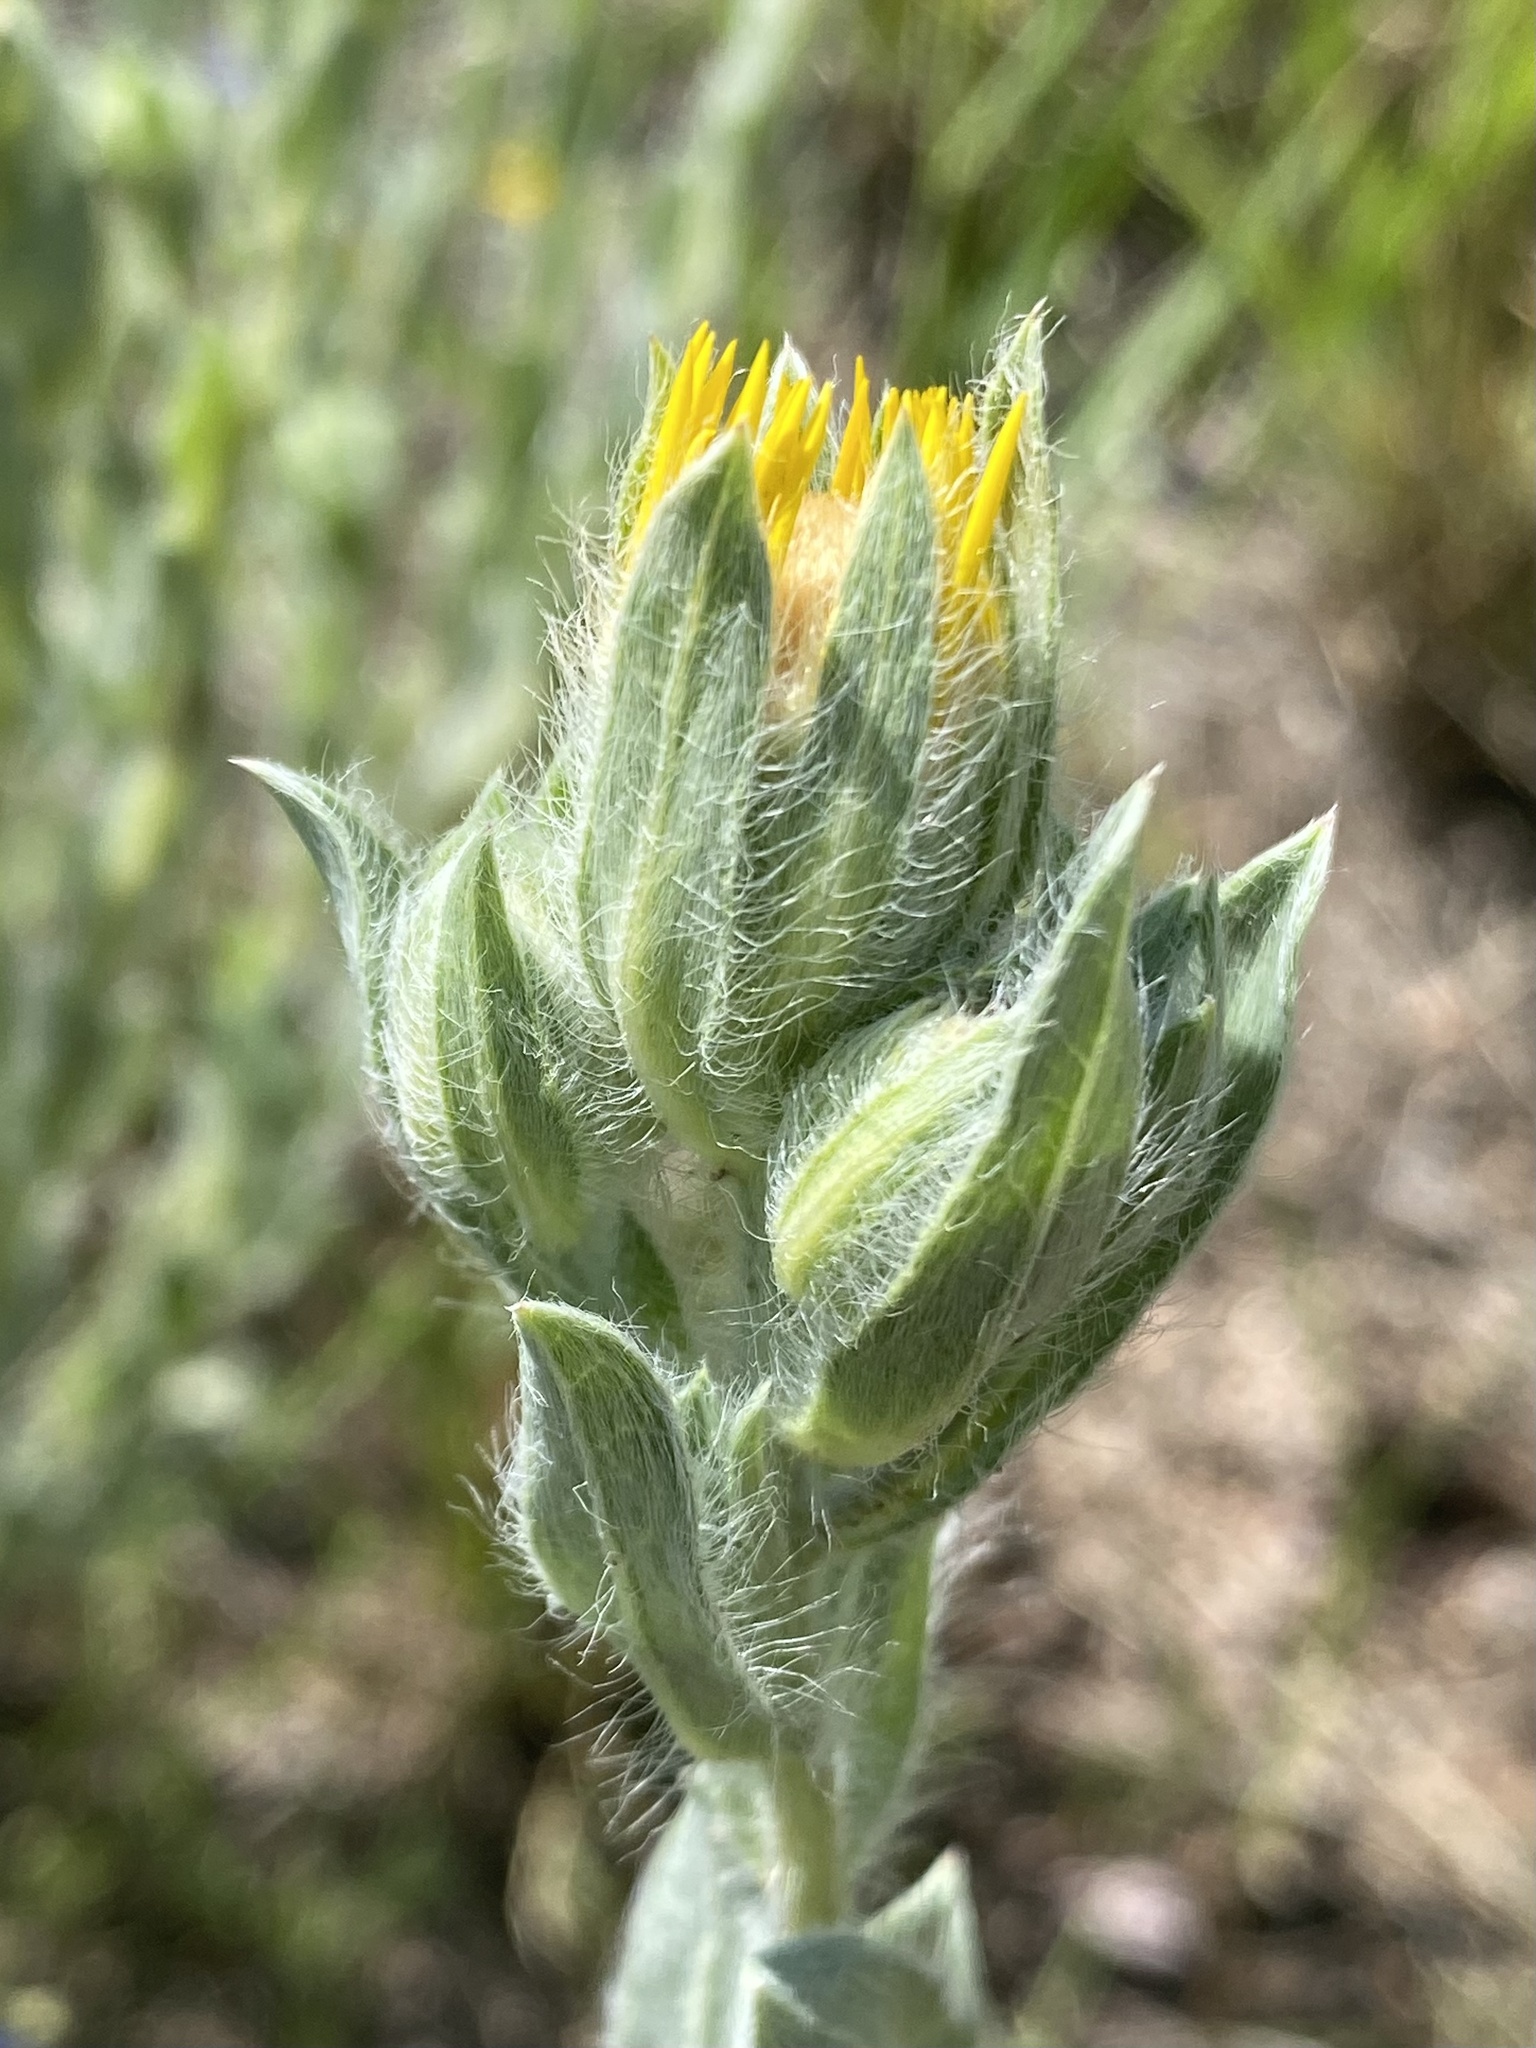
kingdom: Plantae
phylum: Tracheophyta
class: Magnoliopsida
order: Asterales
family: Asteraceae
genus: Heterotheca
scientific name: Heterotheca rutteri
